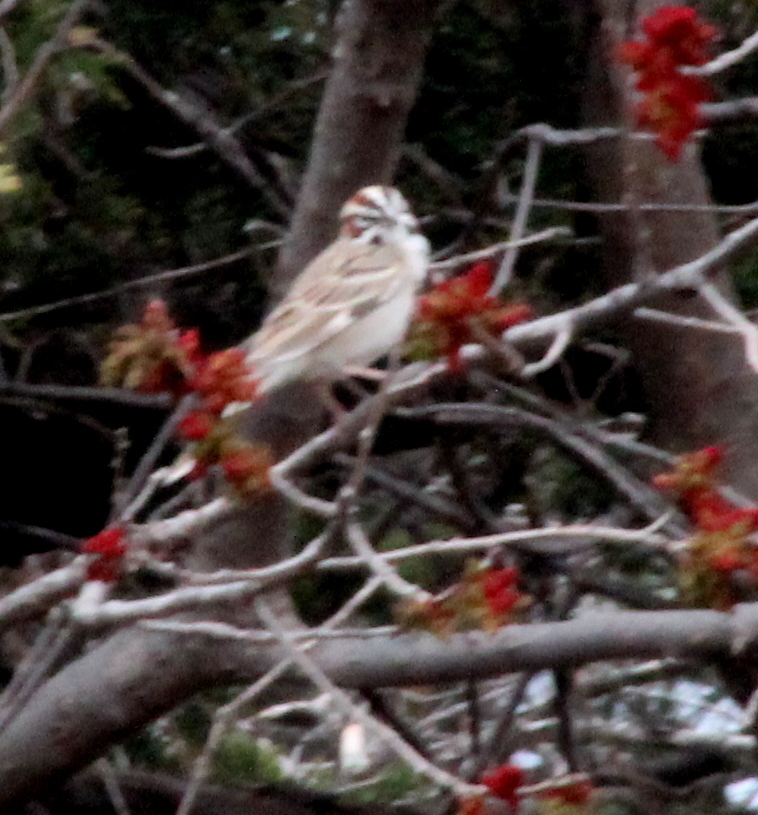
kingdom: Animalia
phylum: Chordata
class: Aves
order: Passeriformes
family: Passerellidae
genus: Chondestes
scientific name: Chondestes grammacus
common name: Lark sparrow
